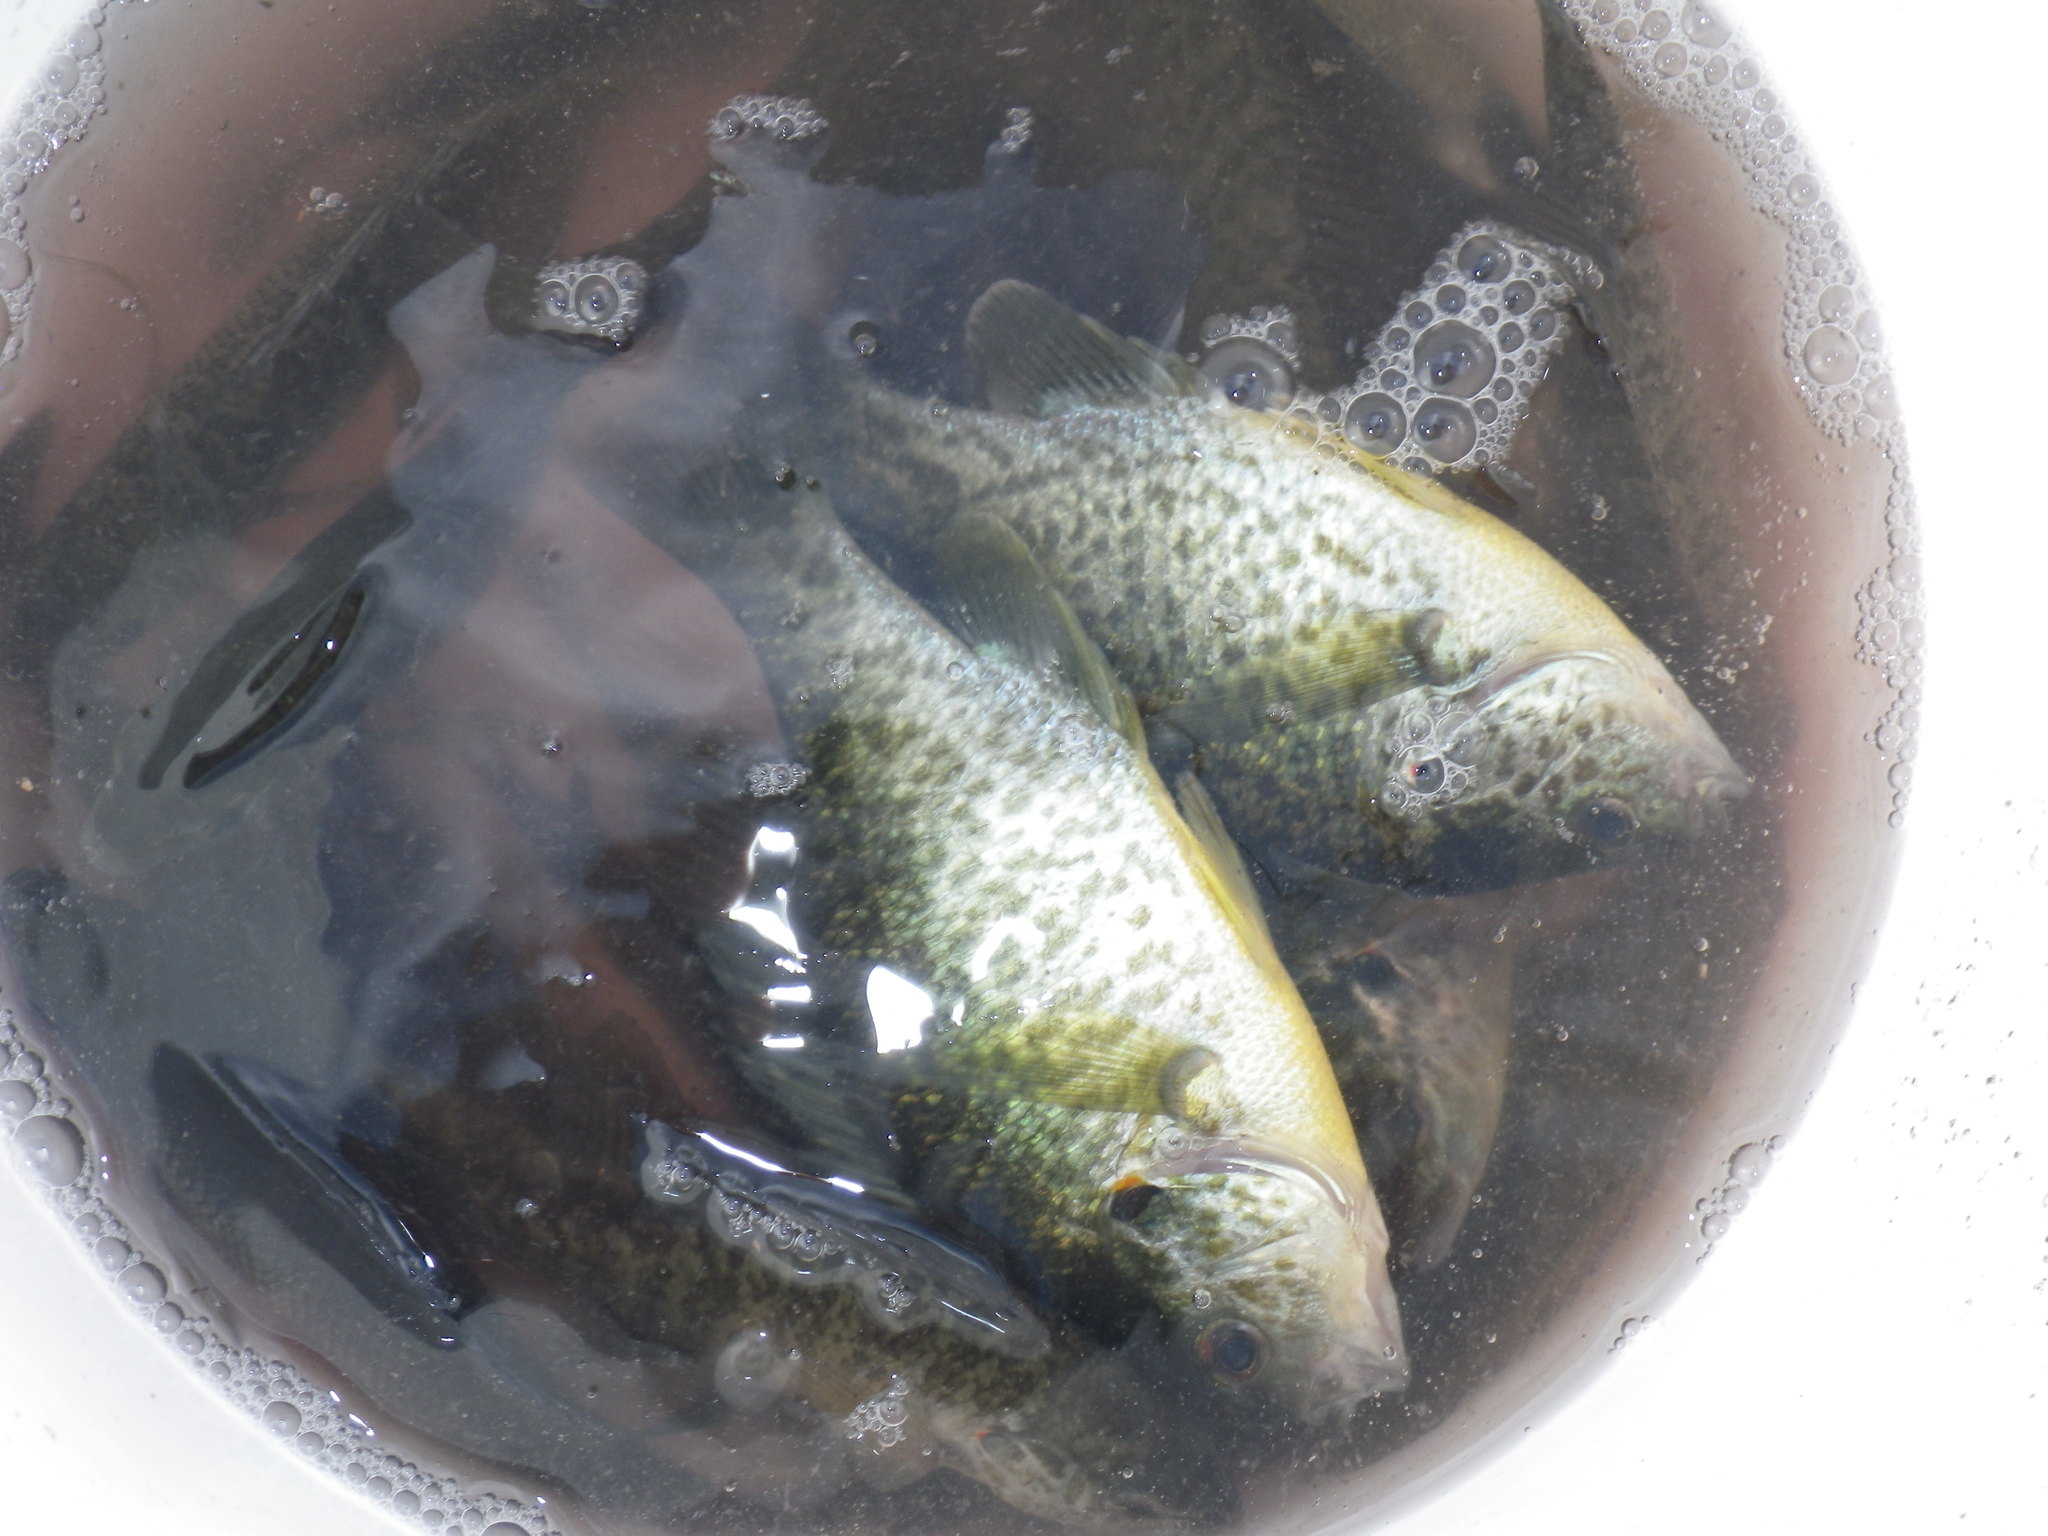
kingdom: Animalia
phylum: Chordata
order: Perciformes
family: Centrarchidae
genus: Lepomis
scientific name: Lepomis microlophus
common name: Redear sunfish
